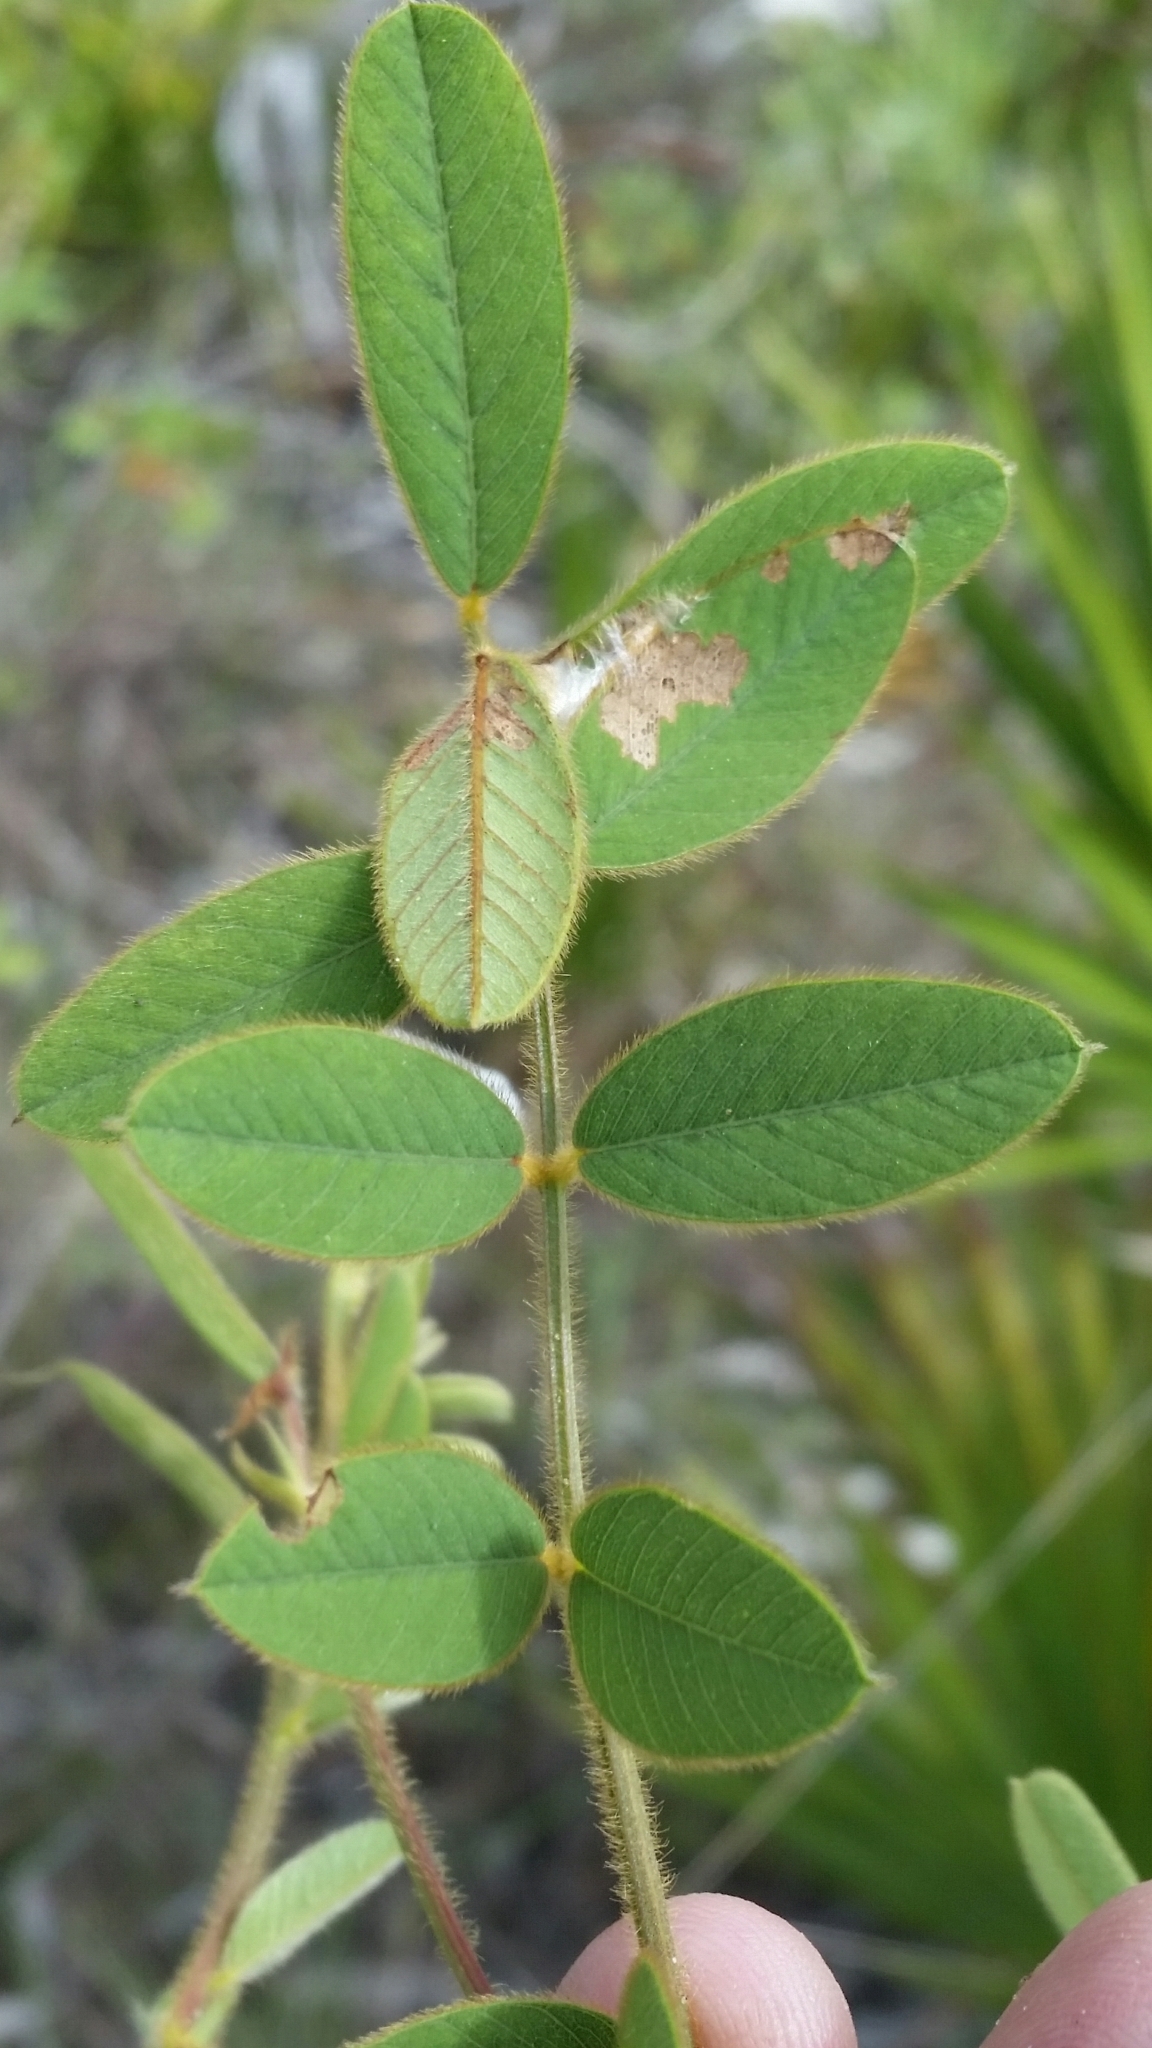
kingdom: Plantae
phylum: Tracheophyta
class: Magnoliopsida
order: Fabales
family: Fabaceae
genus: Tephrosia
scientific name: Tephrosia spicata
